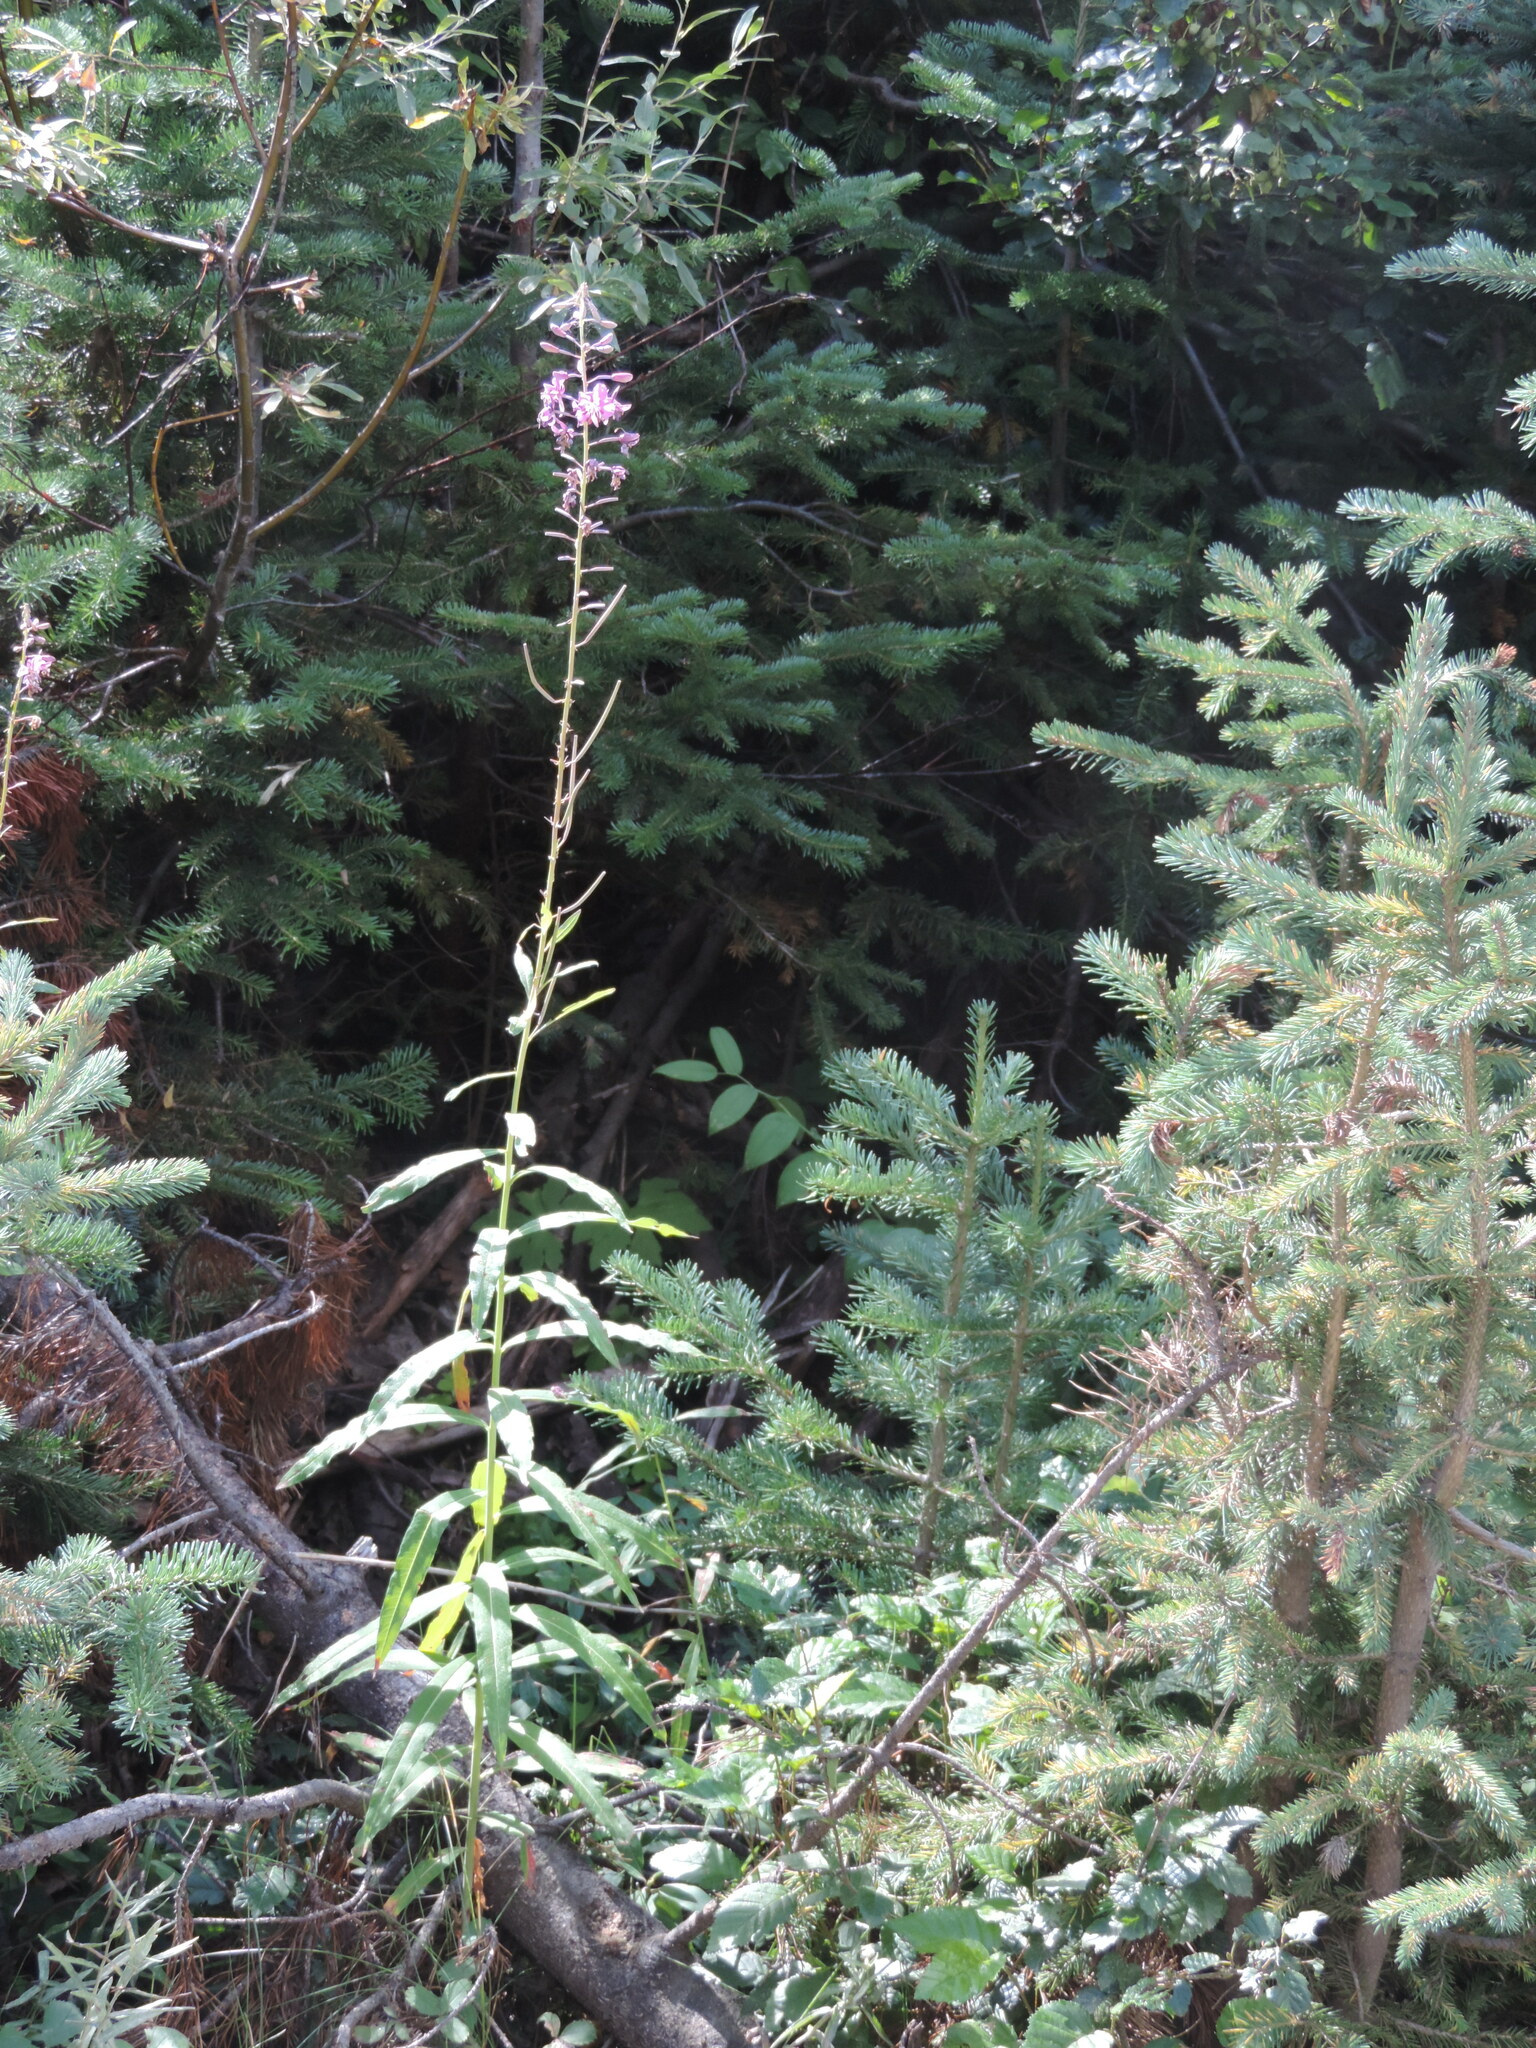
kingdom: Plantae
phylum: Tracheophyta
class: Magnoliopsida
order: Myrtales
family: Onagraceae
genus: Chamaenerion
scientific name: Chamaenerion angustifolium
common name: Fireweed
